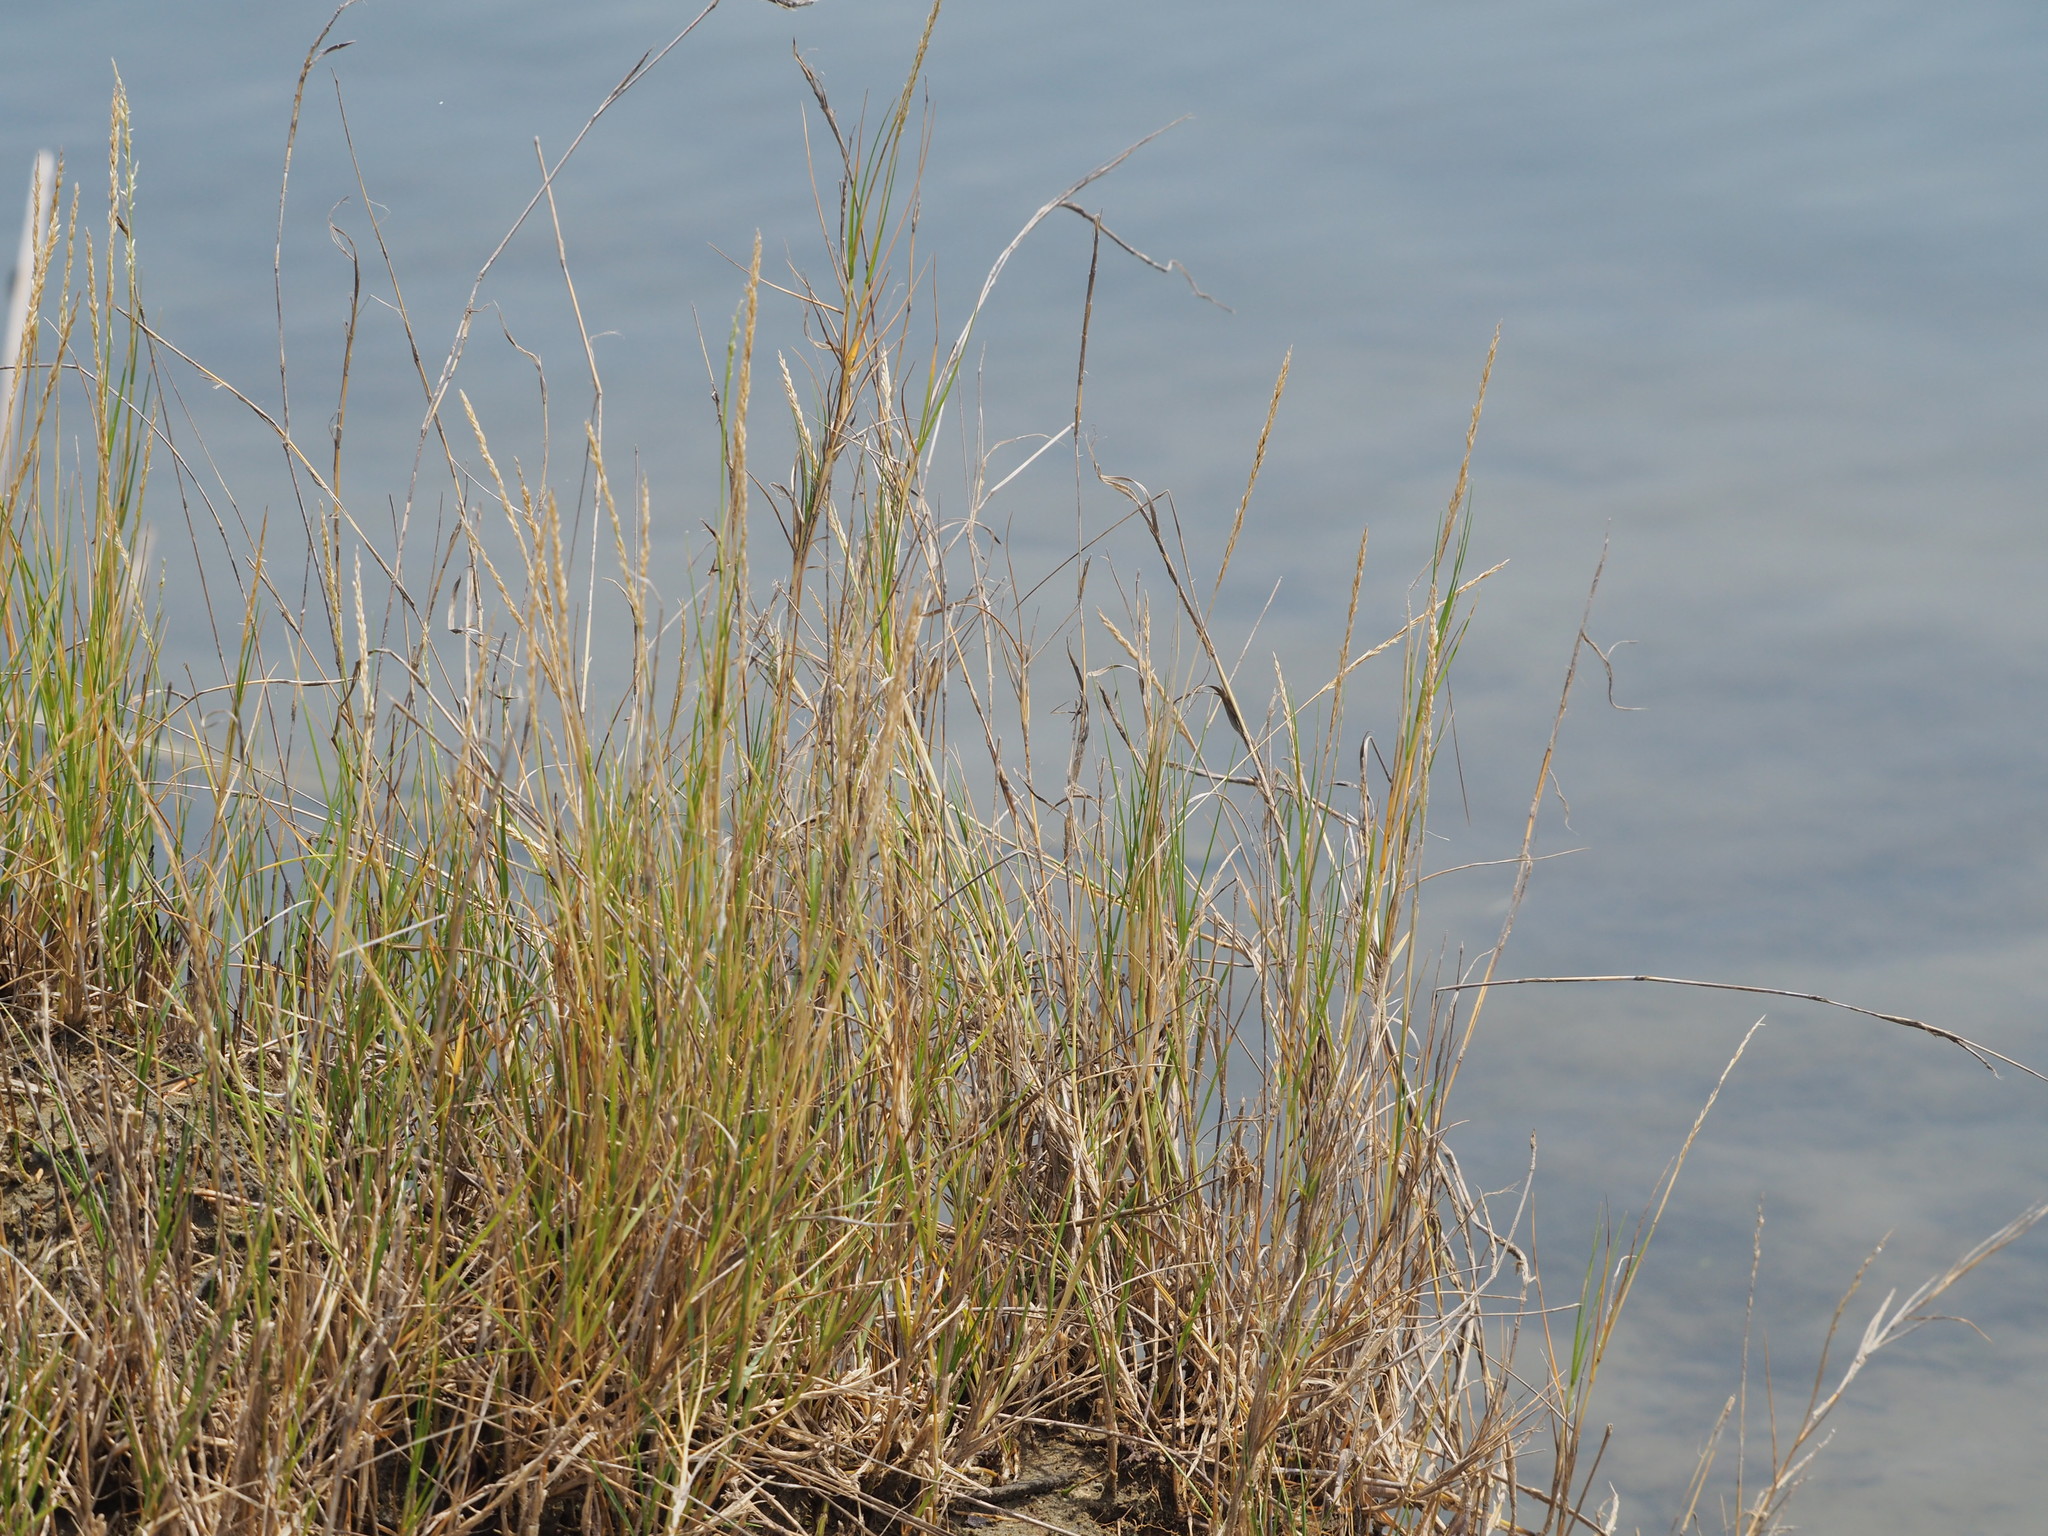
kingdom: Plantae
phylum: Tracheophyta
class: Liliopsida
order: Poales
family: Poaceae
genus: Sporobolus
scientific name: Sporobolus virginicus
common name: Beach dropseed
